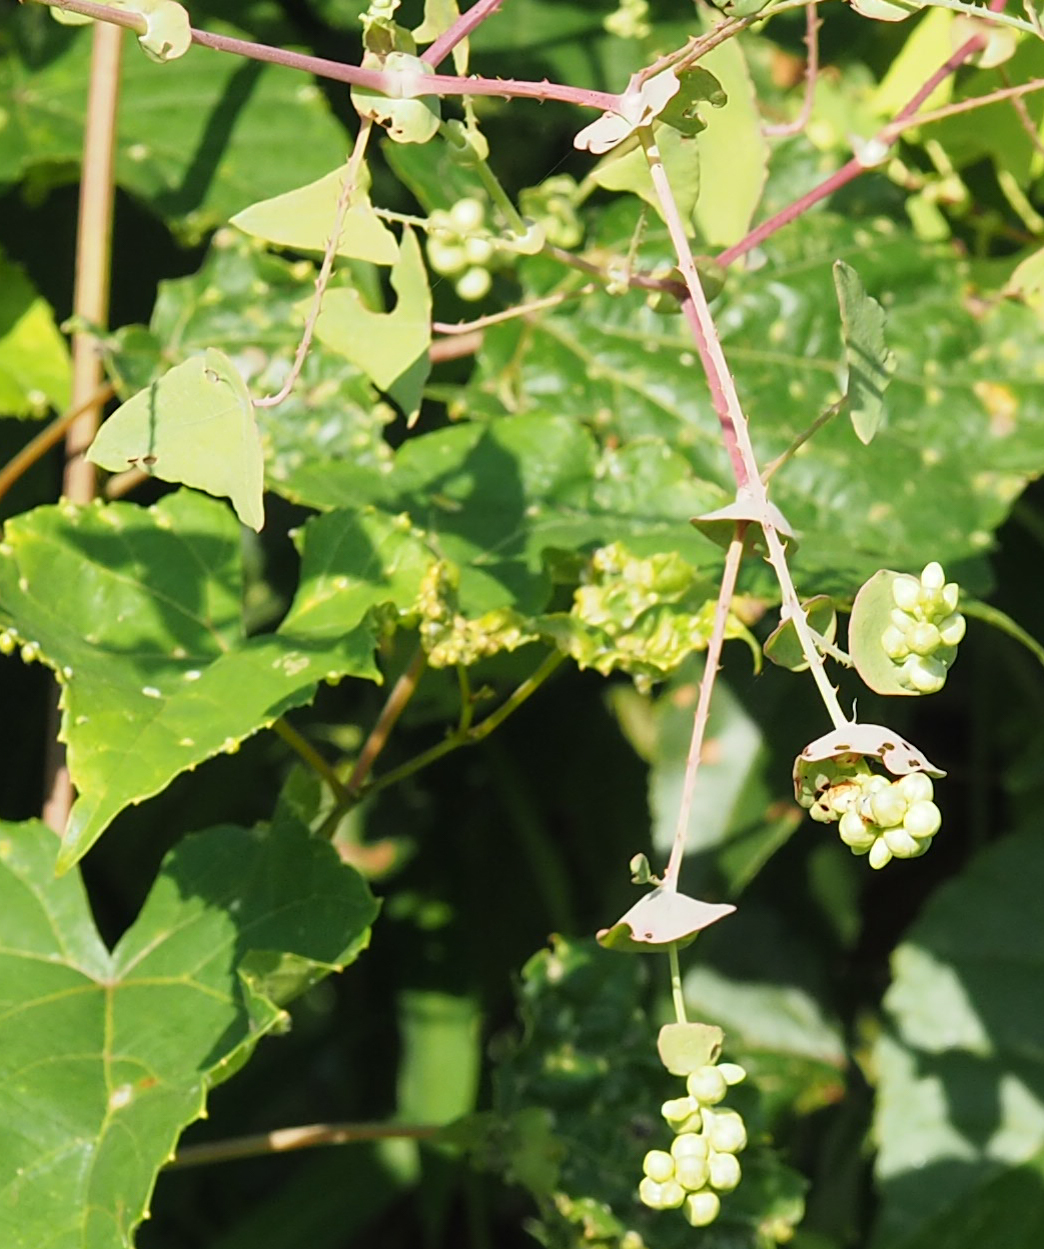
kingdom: Plantae
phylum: Tracheophyta
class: Magnoliopsida
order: Caryophyllales
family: Polygonaceae
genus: Persicaria
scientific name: Persicaria perfoliata
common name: Asiatic tearthumb
